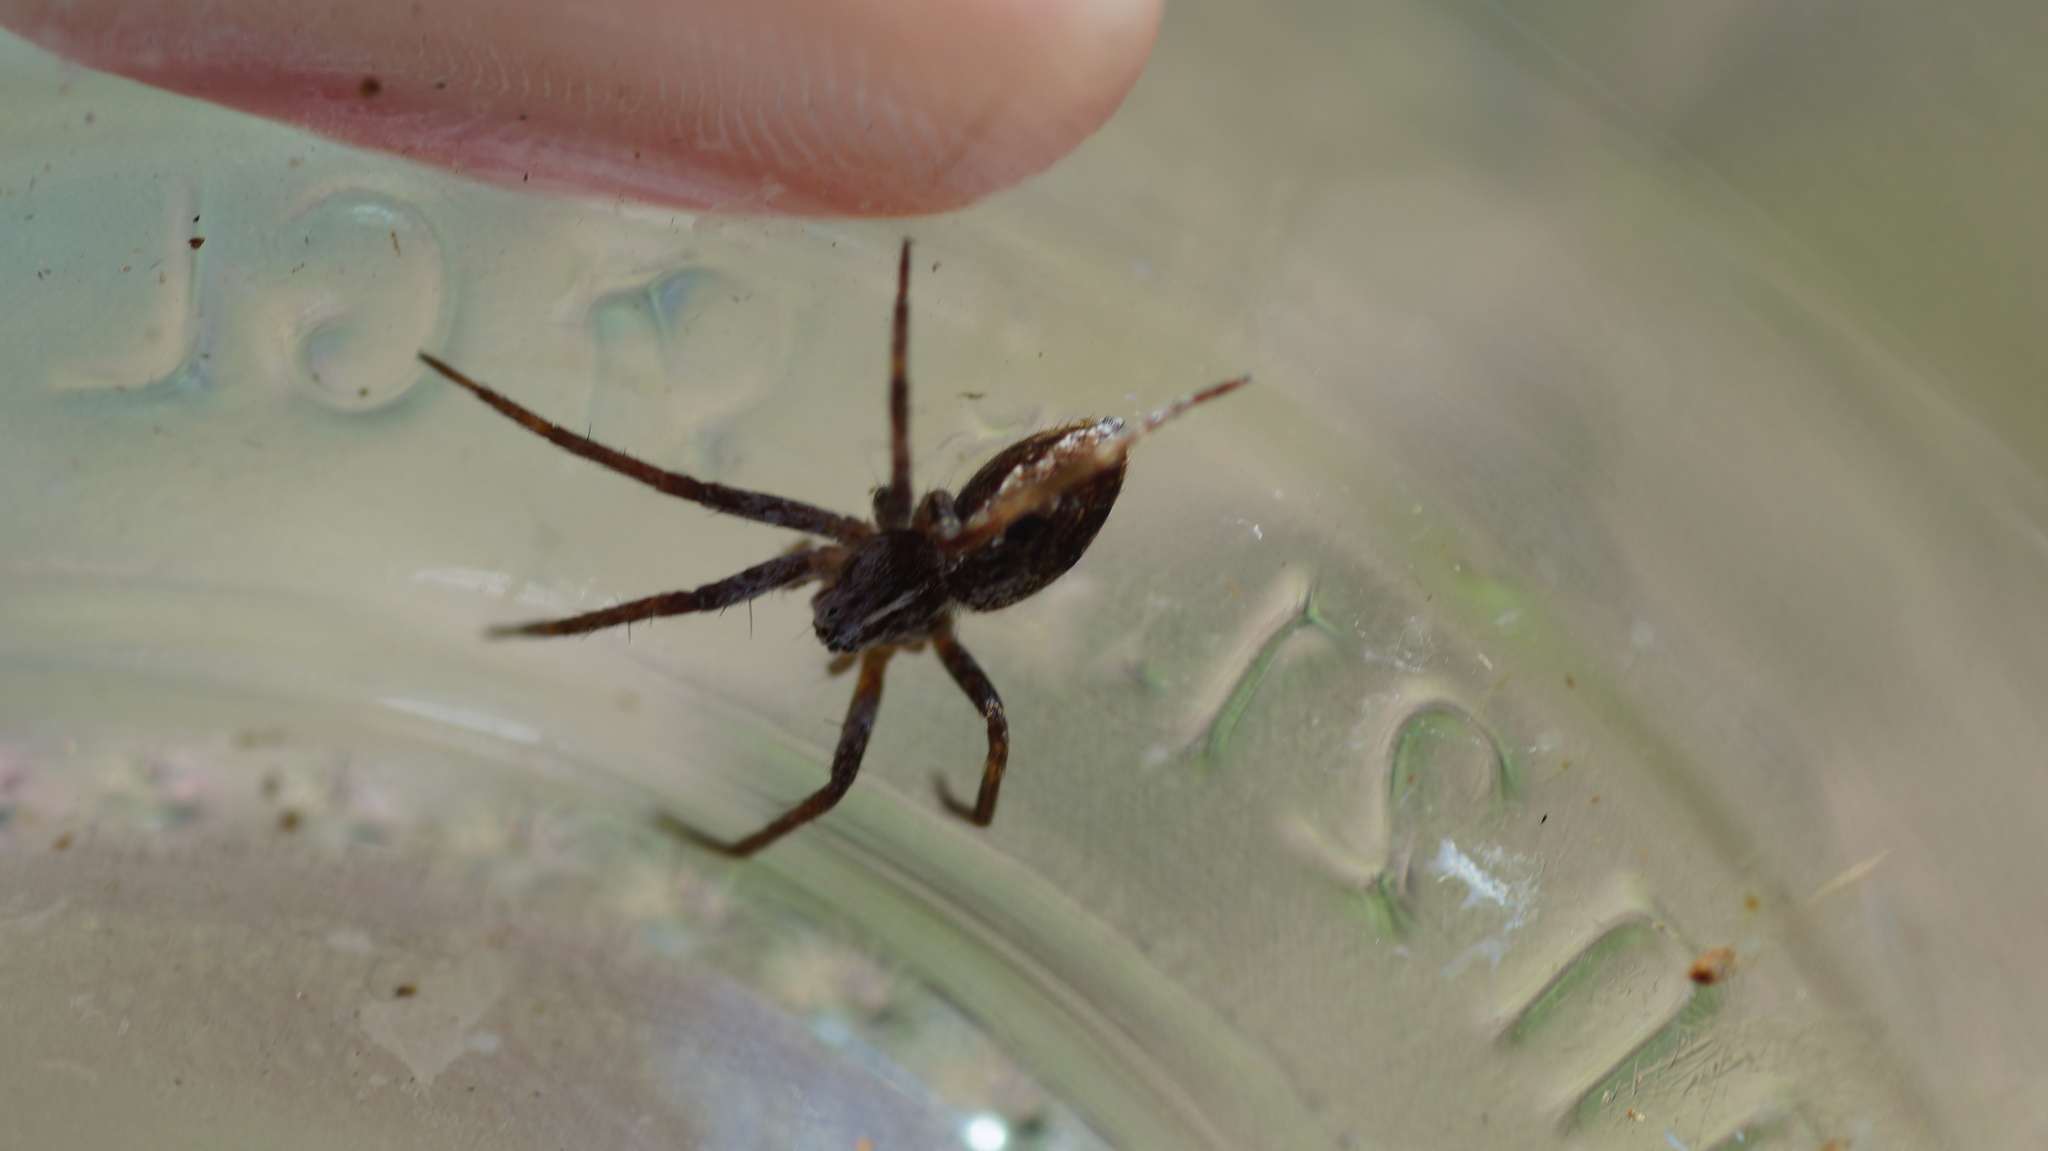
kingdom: Animalia
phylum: Arthropoda
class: Arachnida
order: Araneae
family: Pisauridae
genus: Pisaura
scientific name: Pisaura mirabilis
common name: Tent spider
